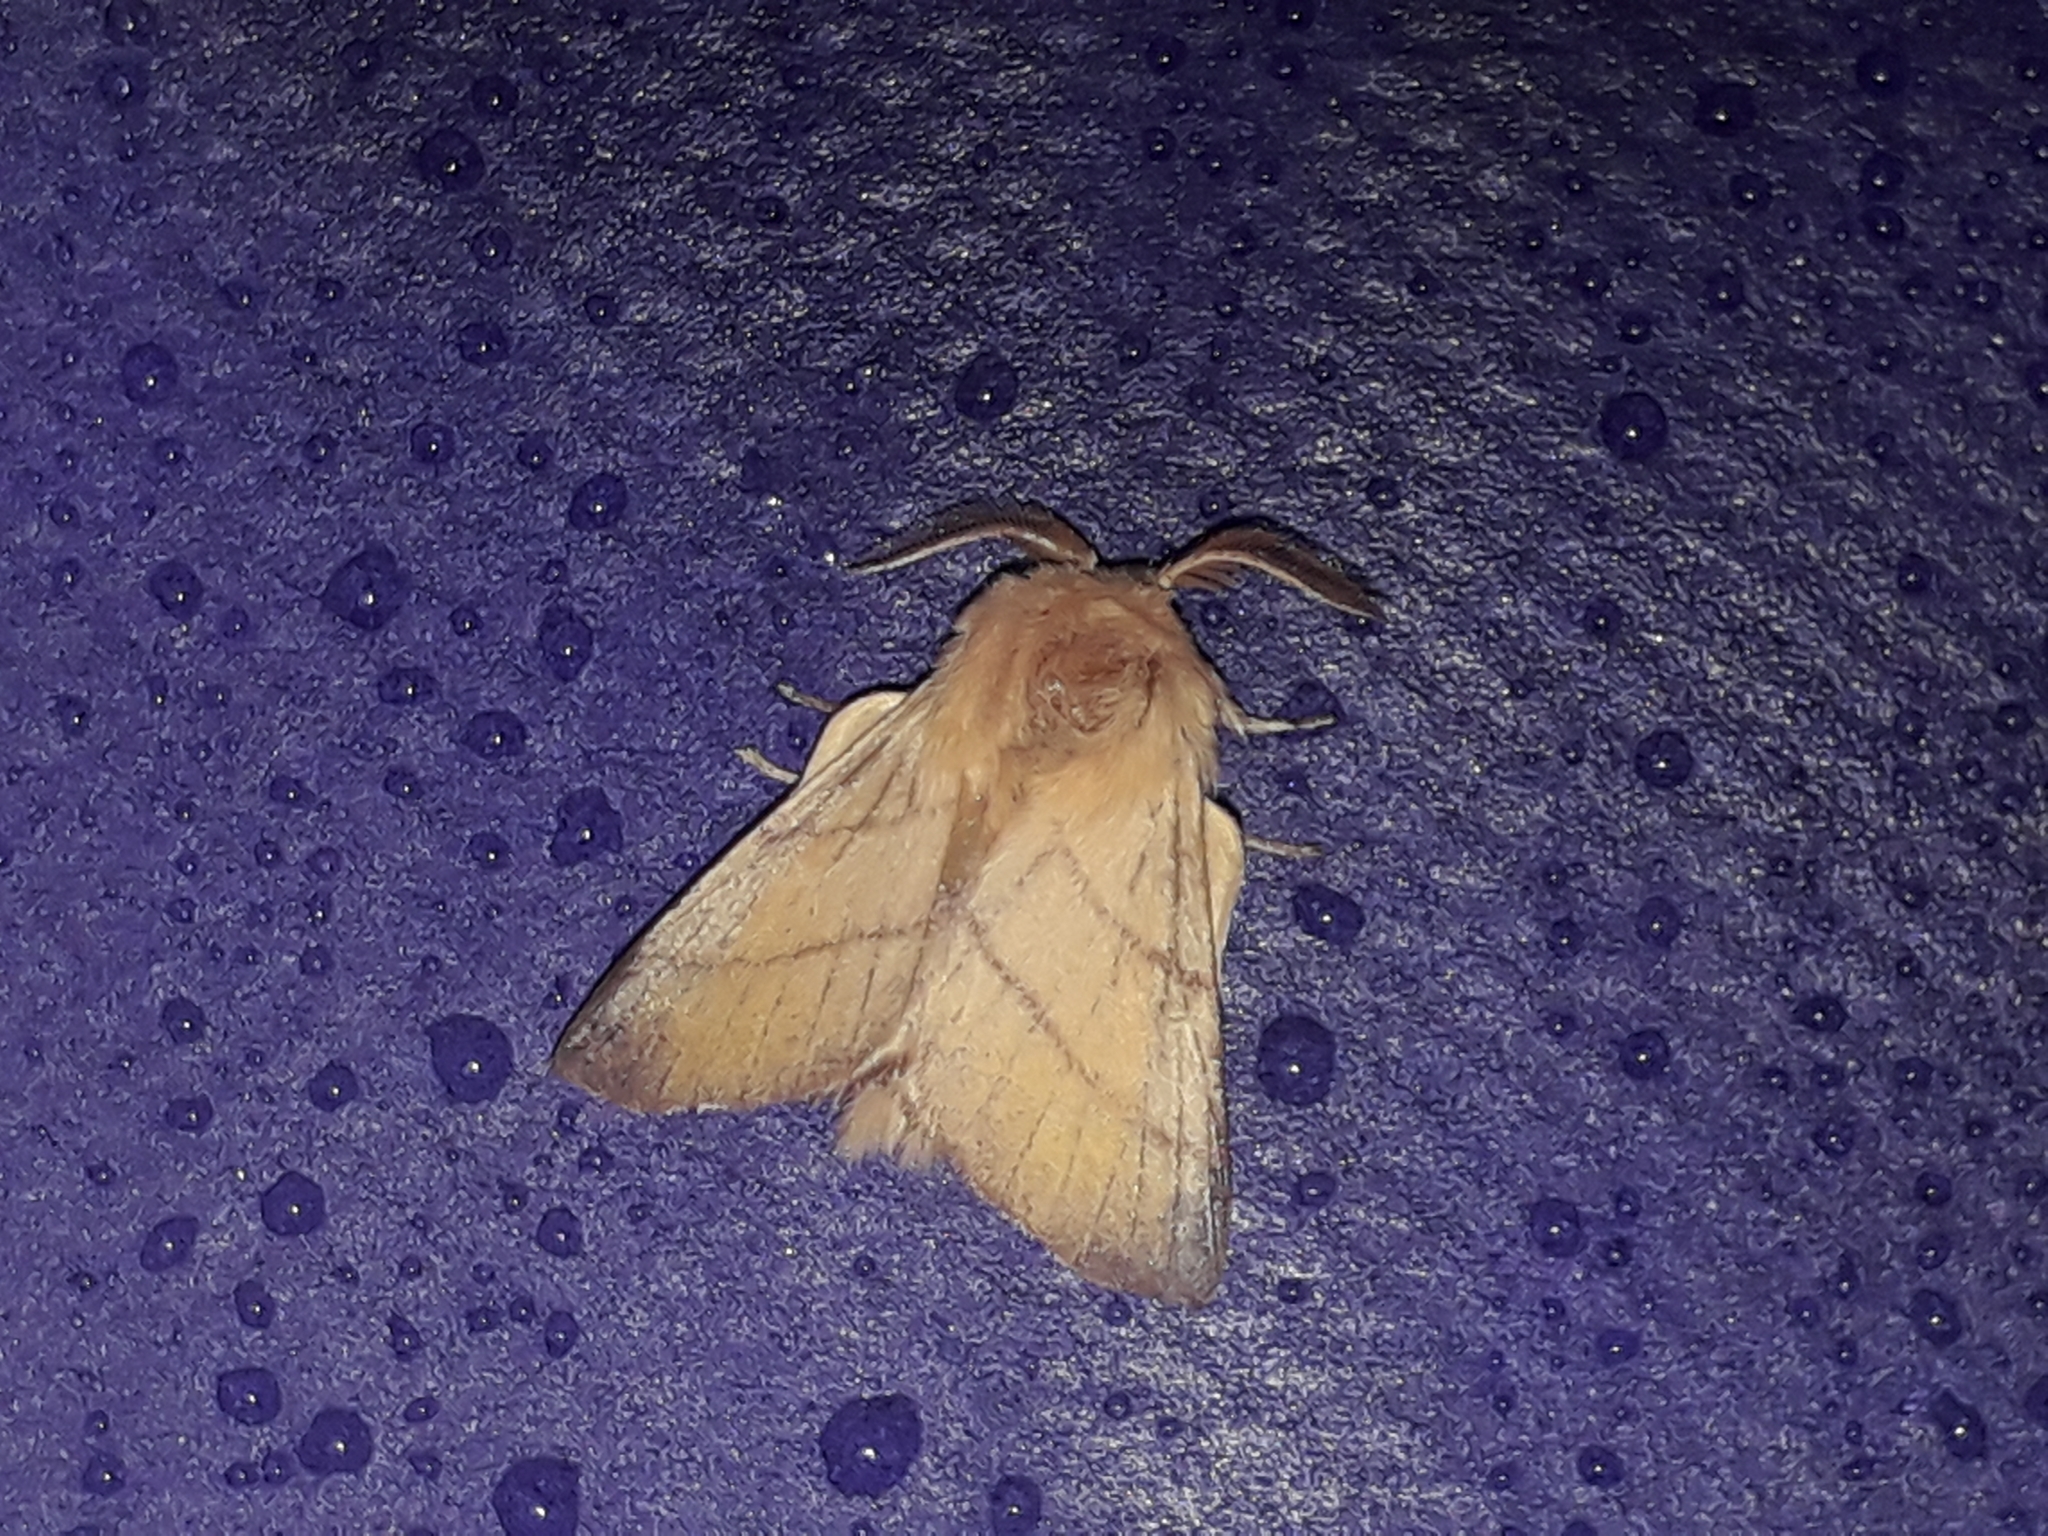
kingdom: Animalia
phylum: Arthropoda
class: Insecta
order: Lepidoptera
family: Lasiocampidae
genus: Malacosoma
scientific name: Malacosoma neustria
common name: The lackey
